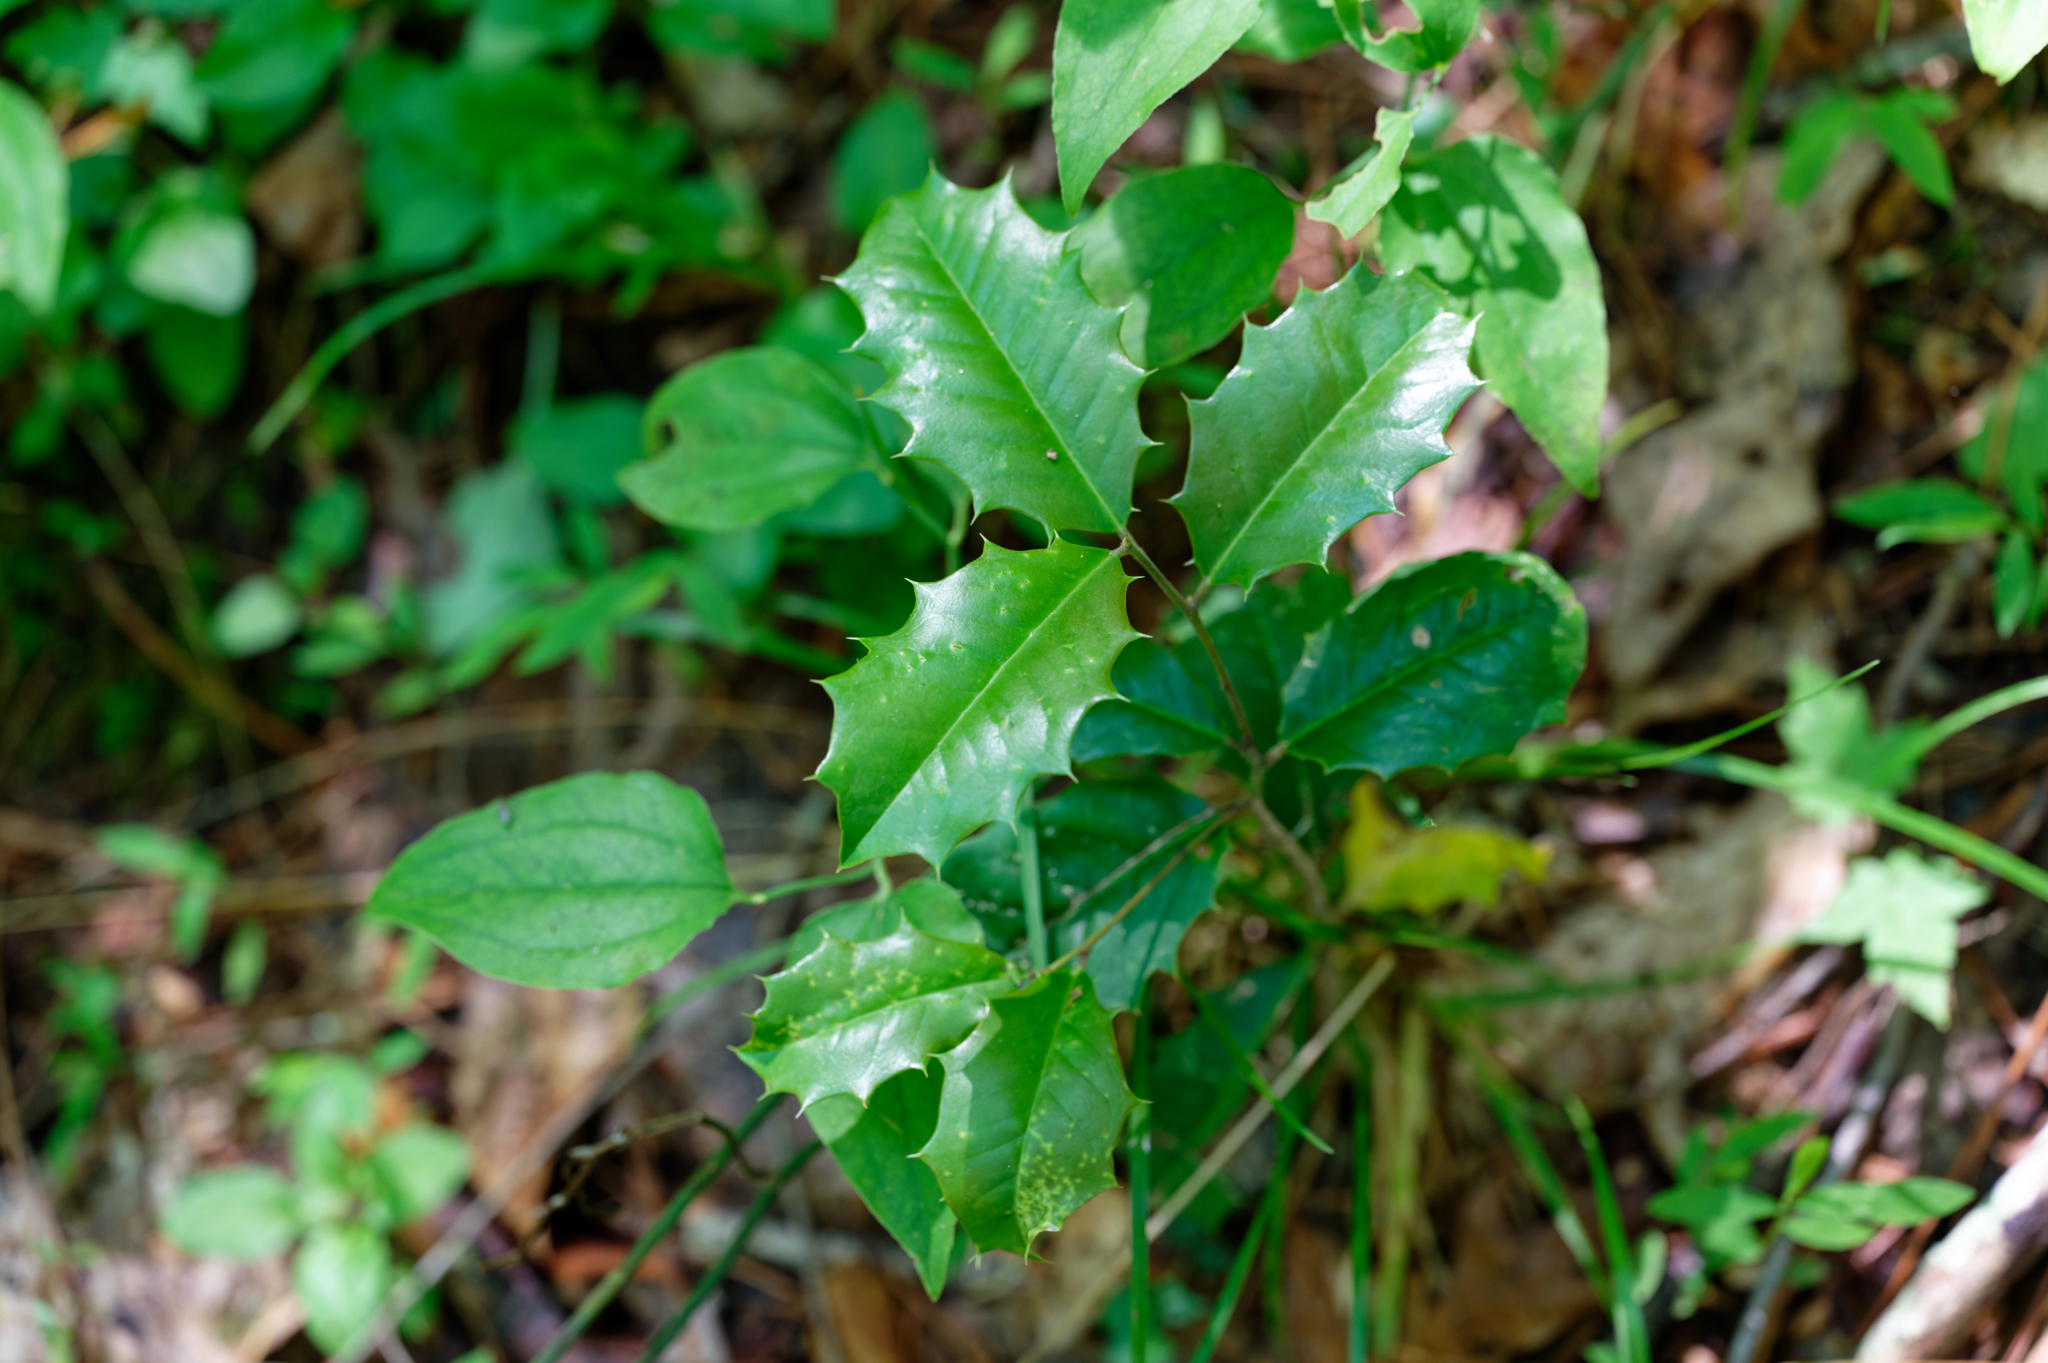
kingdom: Plantae
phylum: Tracheophyta
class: Magnoliopsida
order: Aquifoliales
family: Aquifoliaceae
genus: Ilex
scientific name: Ilex opaca
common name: American holly
